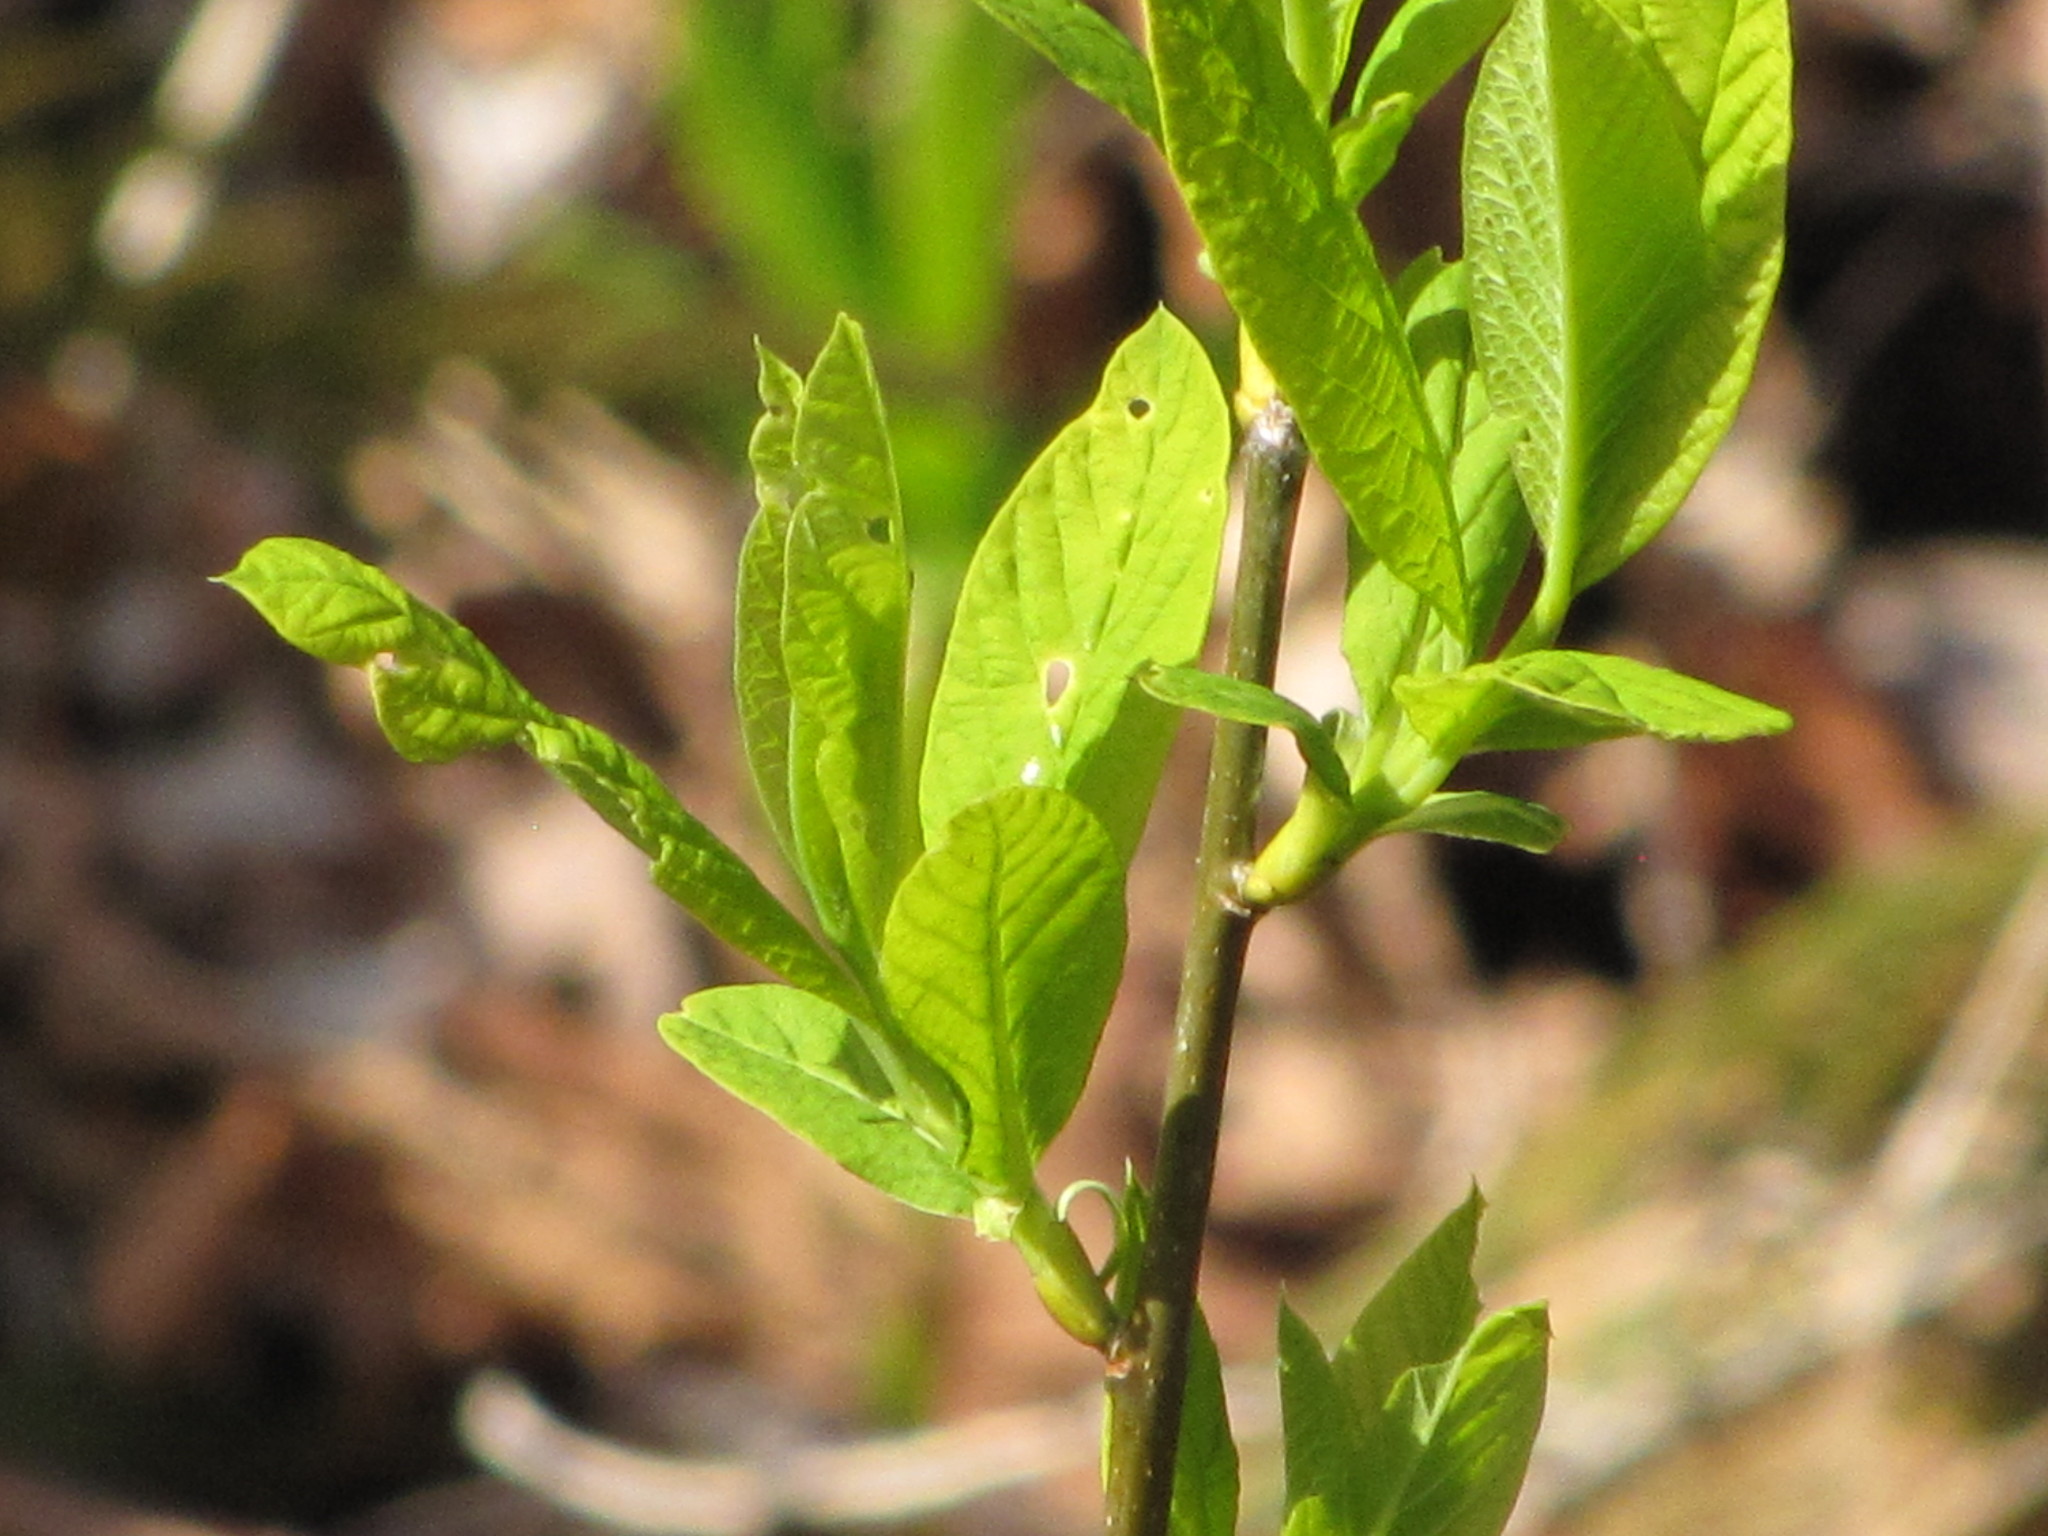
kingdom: Plantae
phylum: Tracheophyta
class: Magnoliopsida
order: Rosales
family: Rosaceae
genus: Oemleria
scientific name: Oemleria cerasiformis
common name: Osoberry
